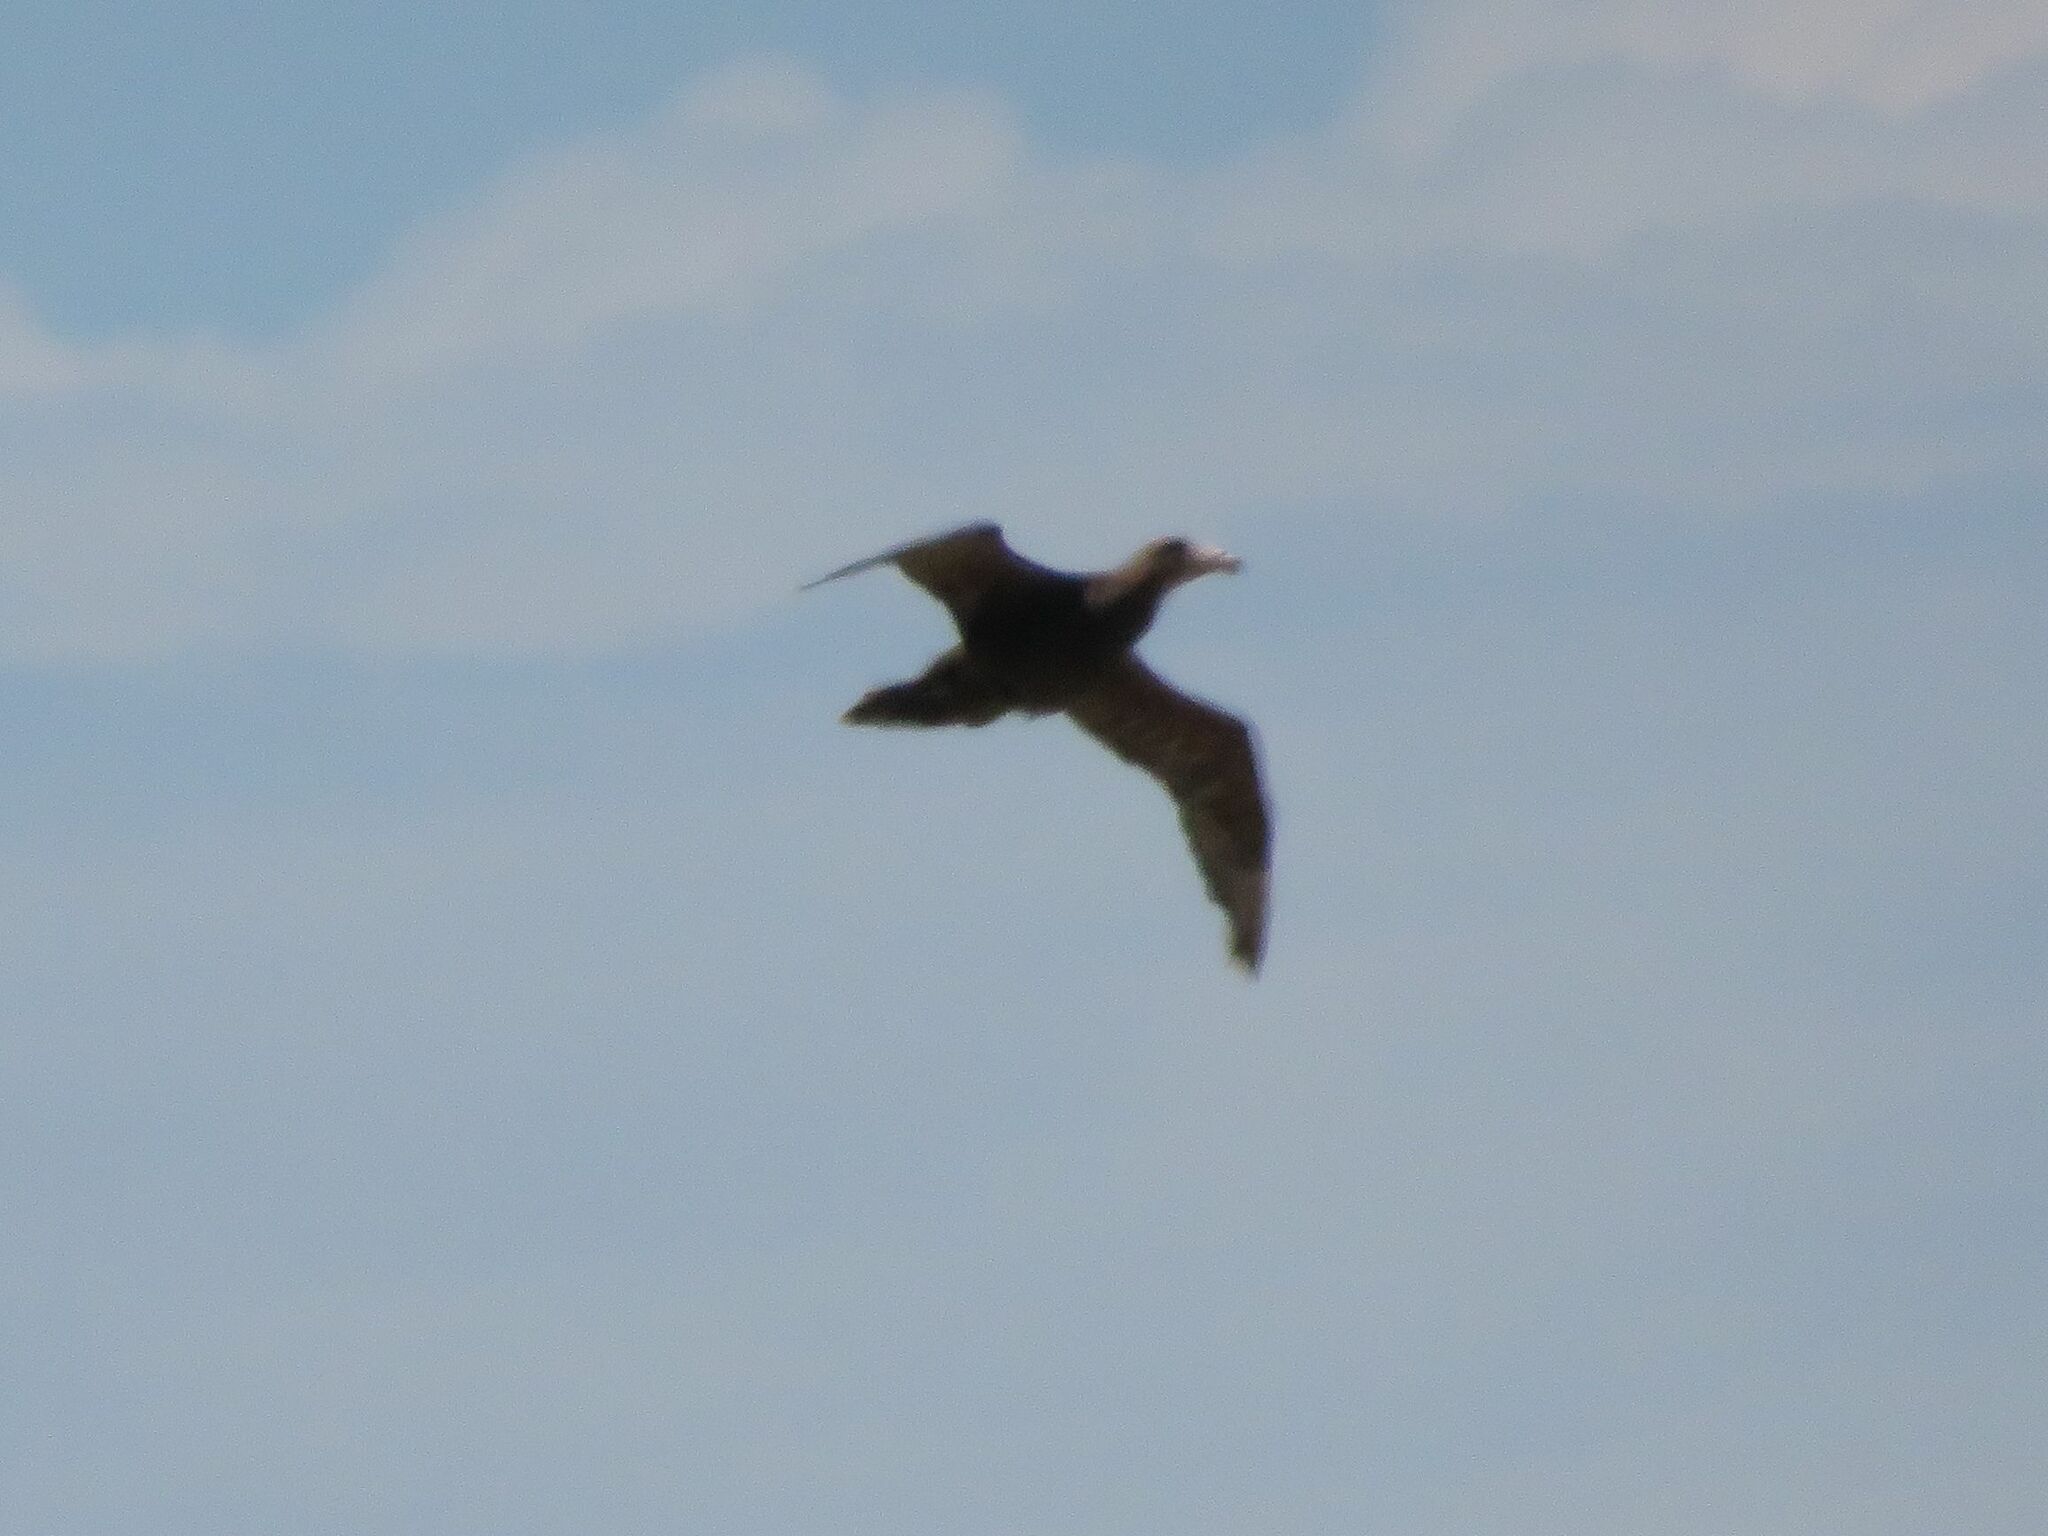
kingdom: Animalia
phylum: Chordata
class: Aves
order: Procellariiformes
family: Procellariidae
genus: Macronectes
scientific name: Macronectes giganteus
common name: Southern giant petrel
